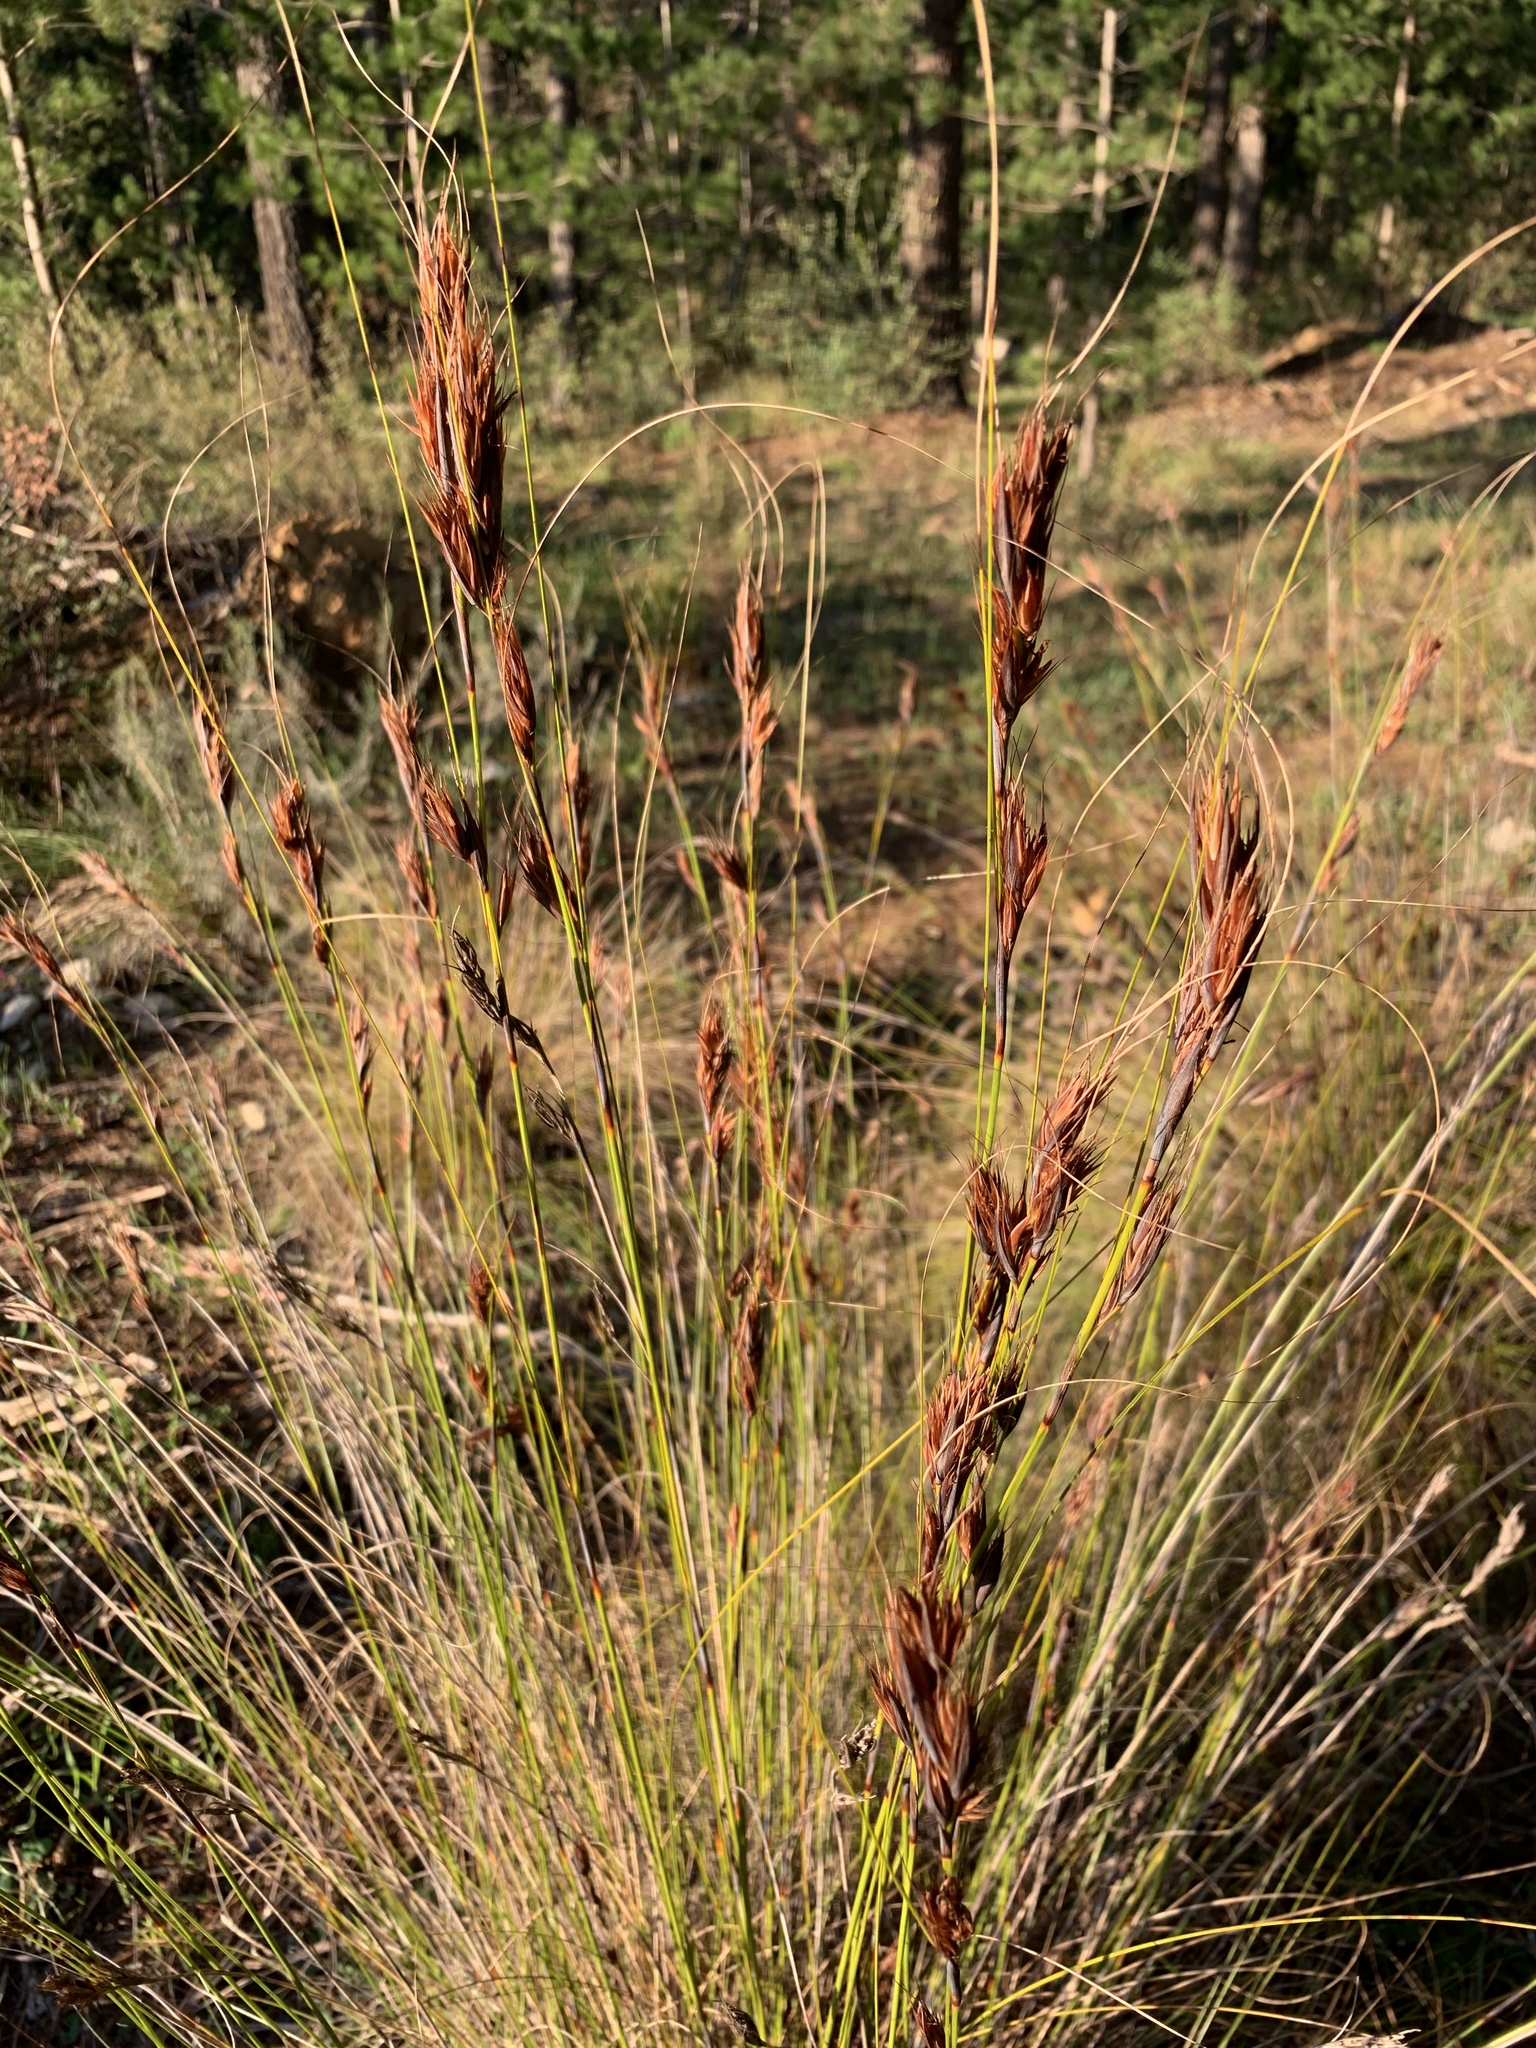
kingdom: Plantae
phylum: Tracheophyta
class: Liliopsida
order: Poales
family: Cyperaceae
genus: Tetraria
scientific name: Tetraria ustulata
